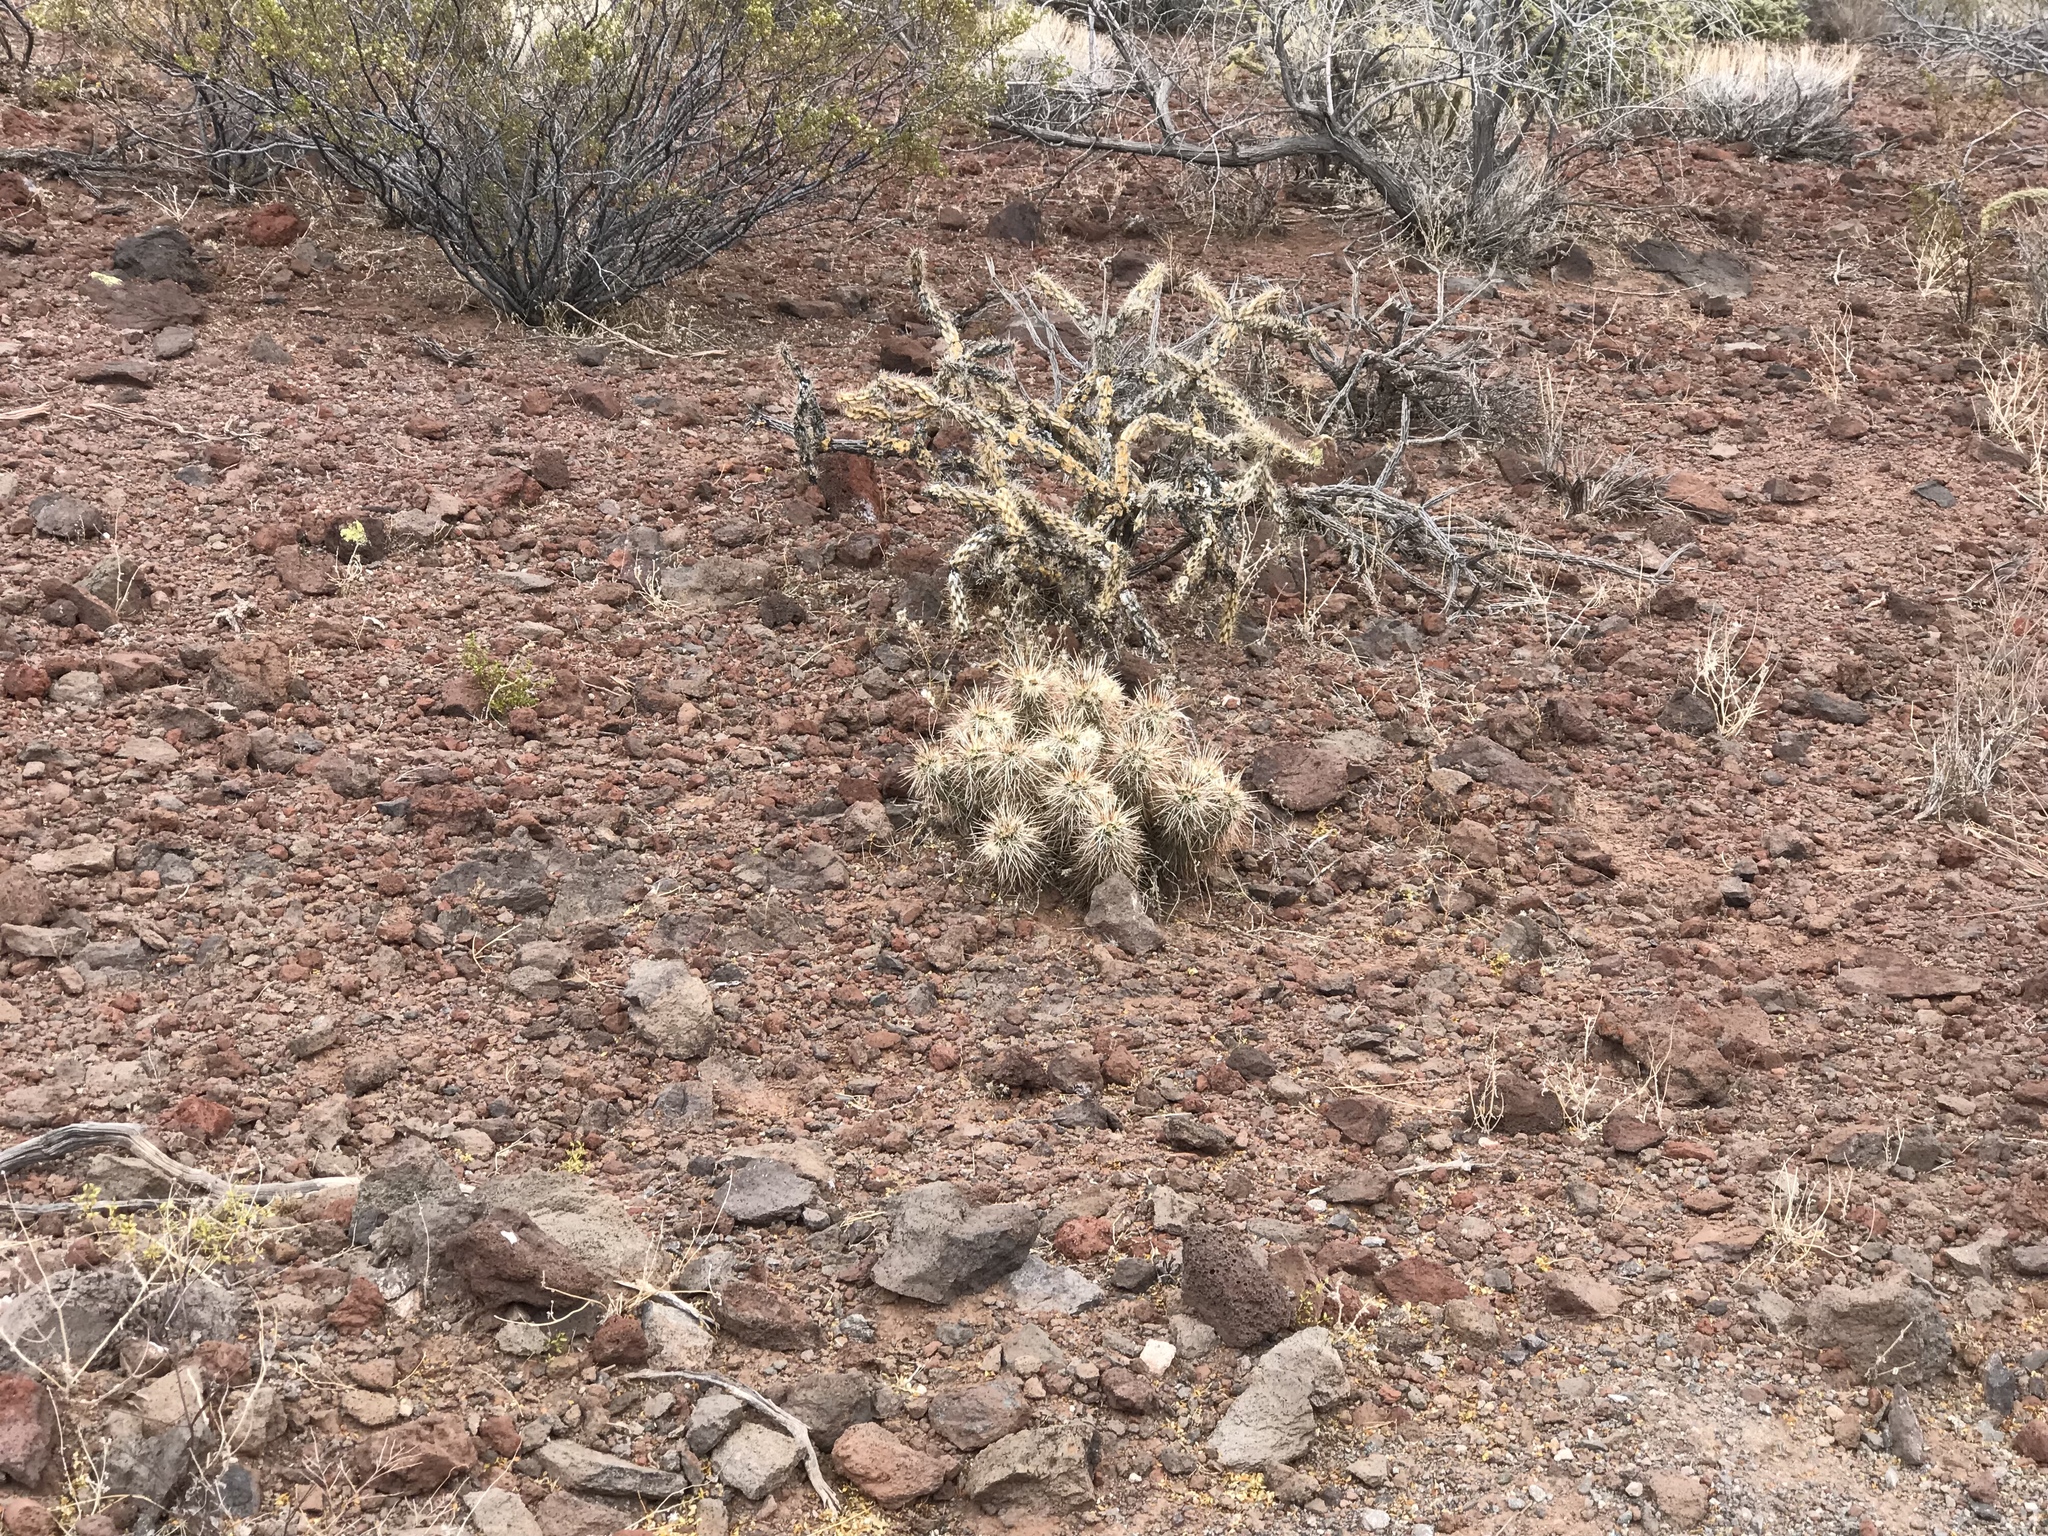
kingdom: Plantae
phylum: Tracheophyta
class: Magnoliopsida
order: Caryophyllales
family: Cactaceae
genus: Echinocereus
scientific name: Echinocereus engelmannii
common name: Engelmann's hedgehog cactus
